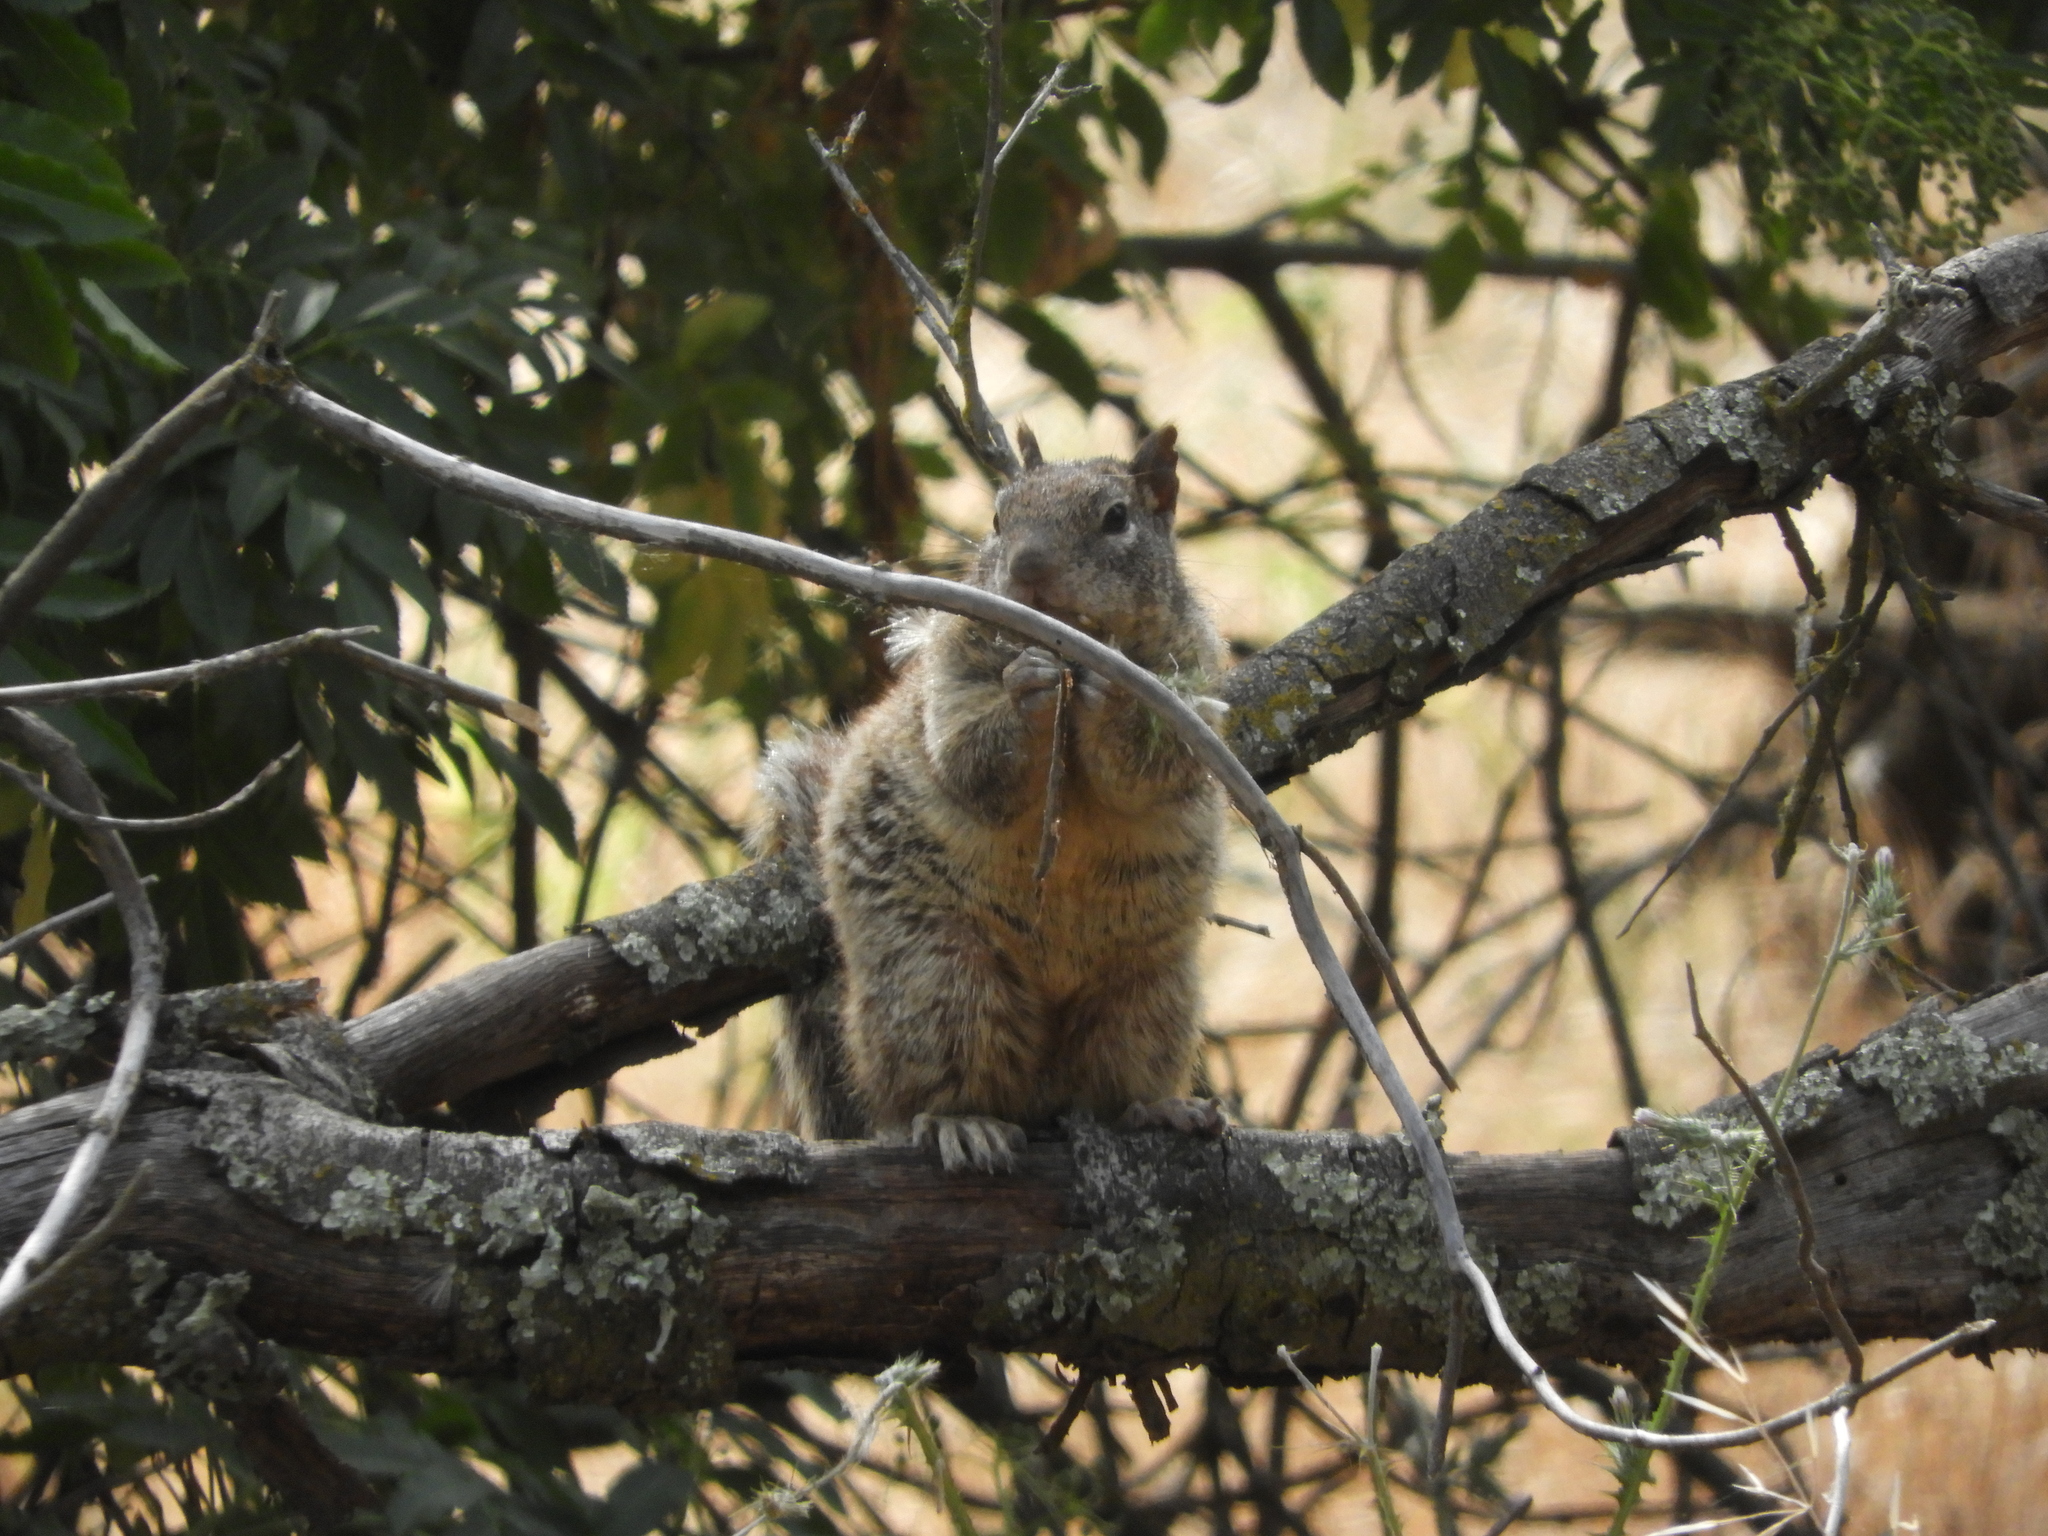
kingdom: Animalia
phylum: Chordata
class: Mammalia
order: Rodentia
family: Sciuridae
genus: Otospermophilus
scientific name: Otospermophilus beecheyi
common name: California ground squirrel
